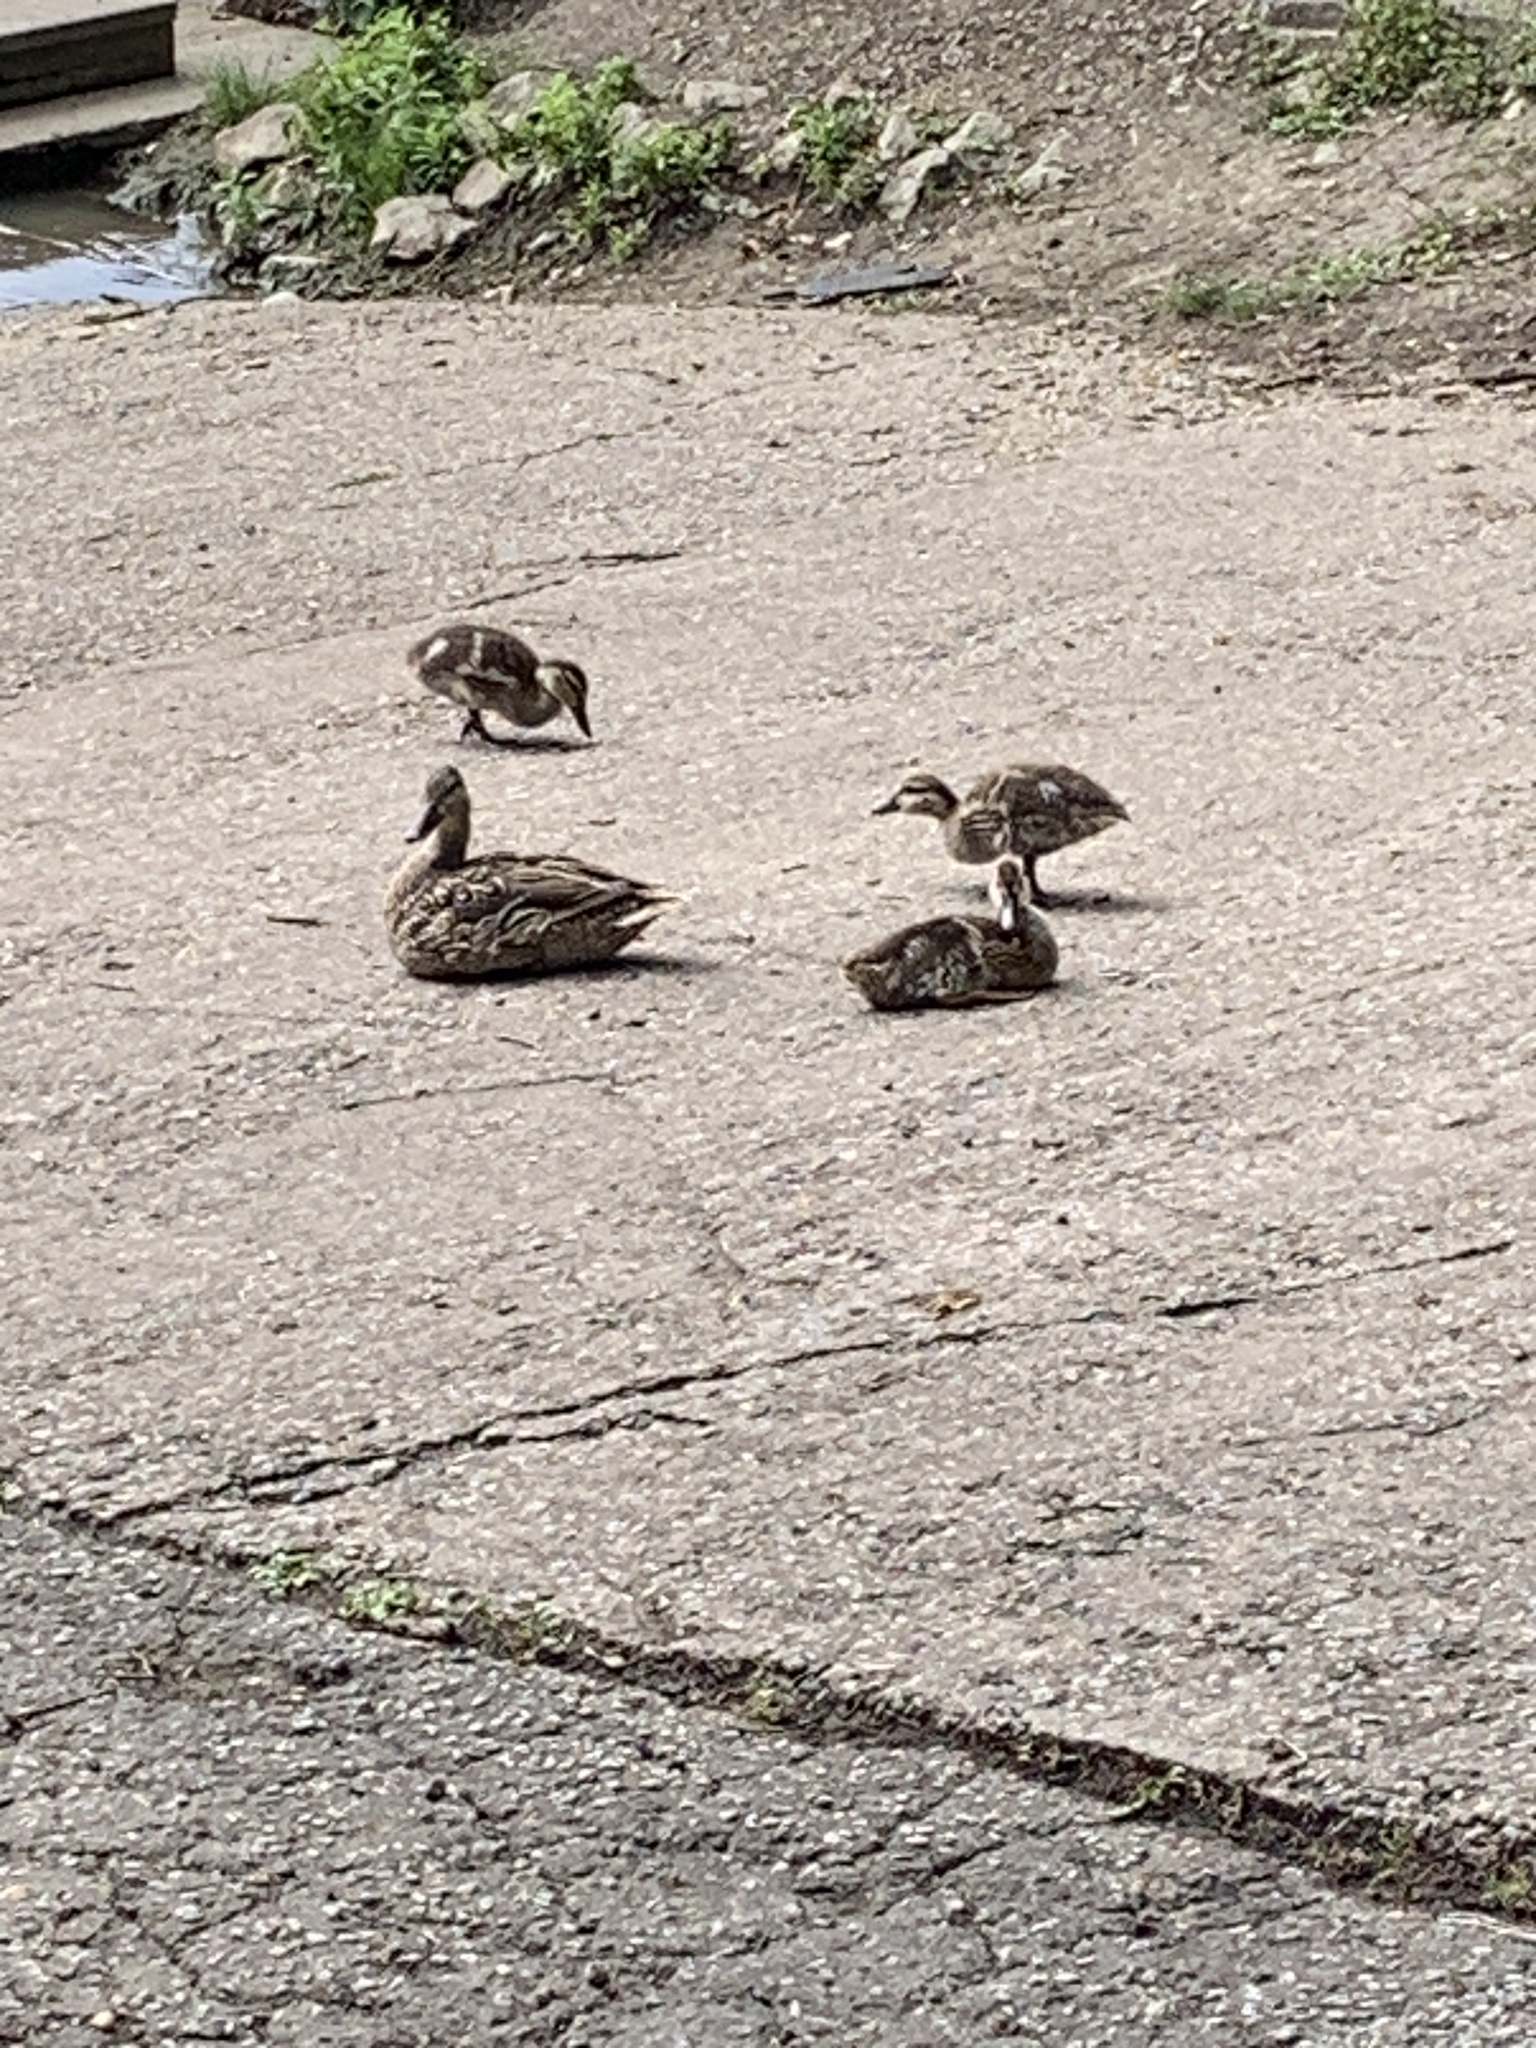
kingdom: Animalia
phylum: Chordata
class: Aves
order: Anseriformes
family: Anatidae
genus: Anas
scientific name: Anas platyrhynchos
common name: Mallard
